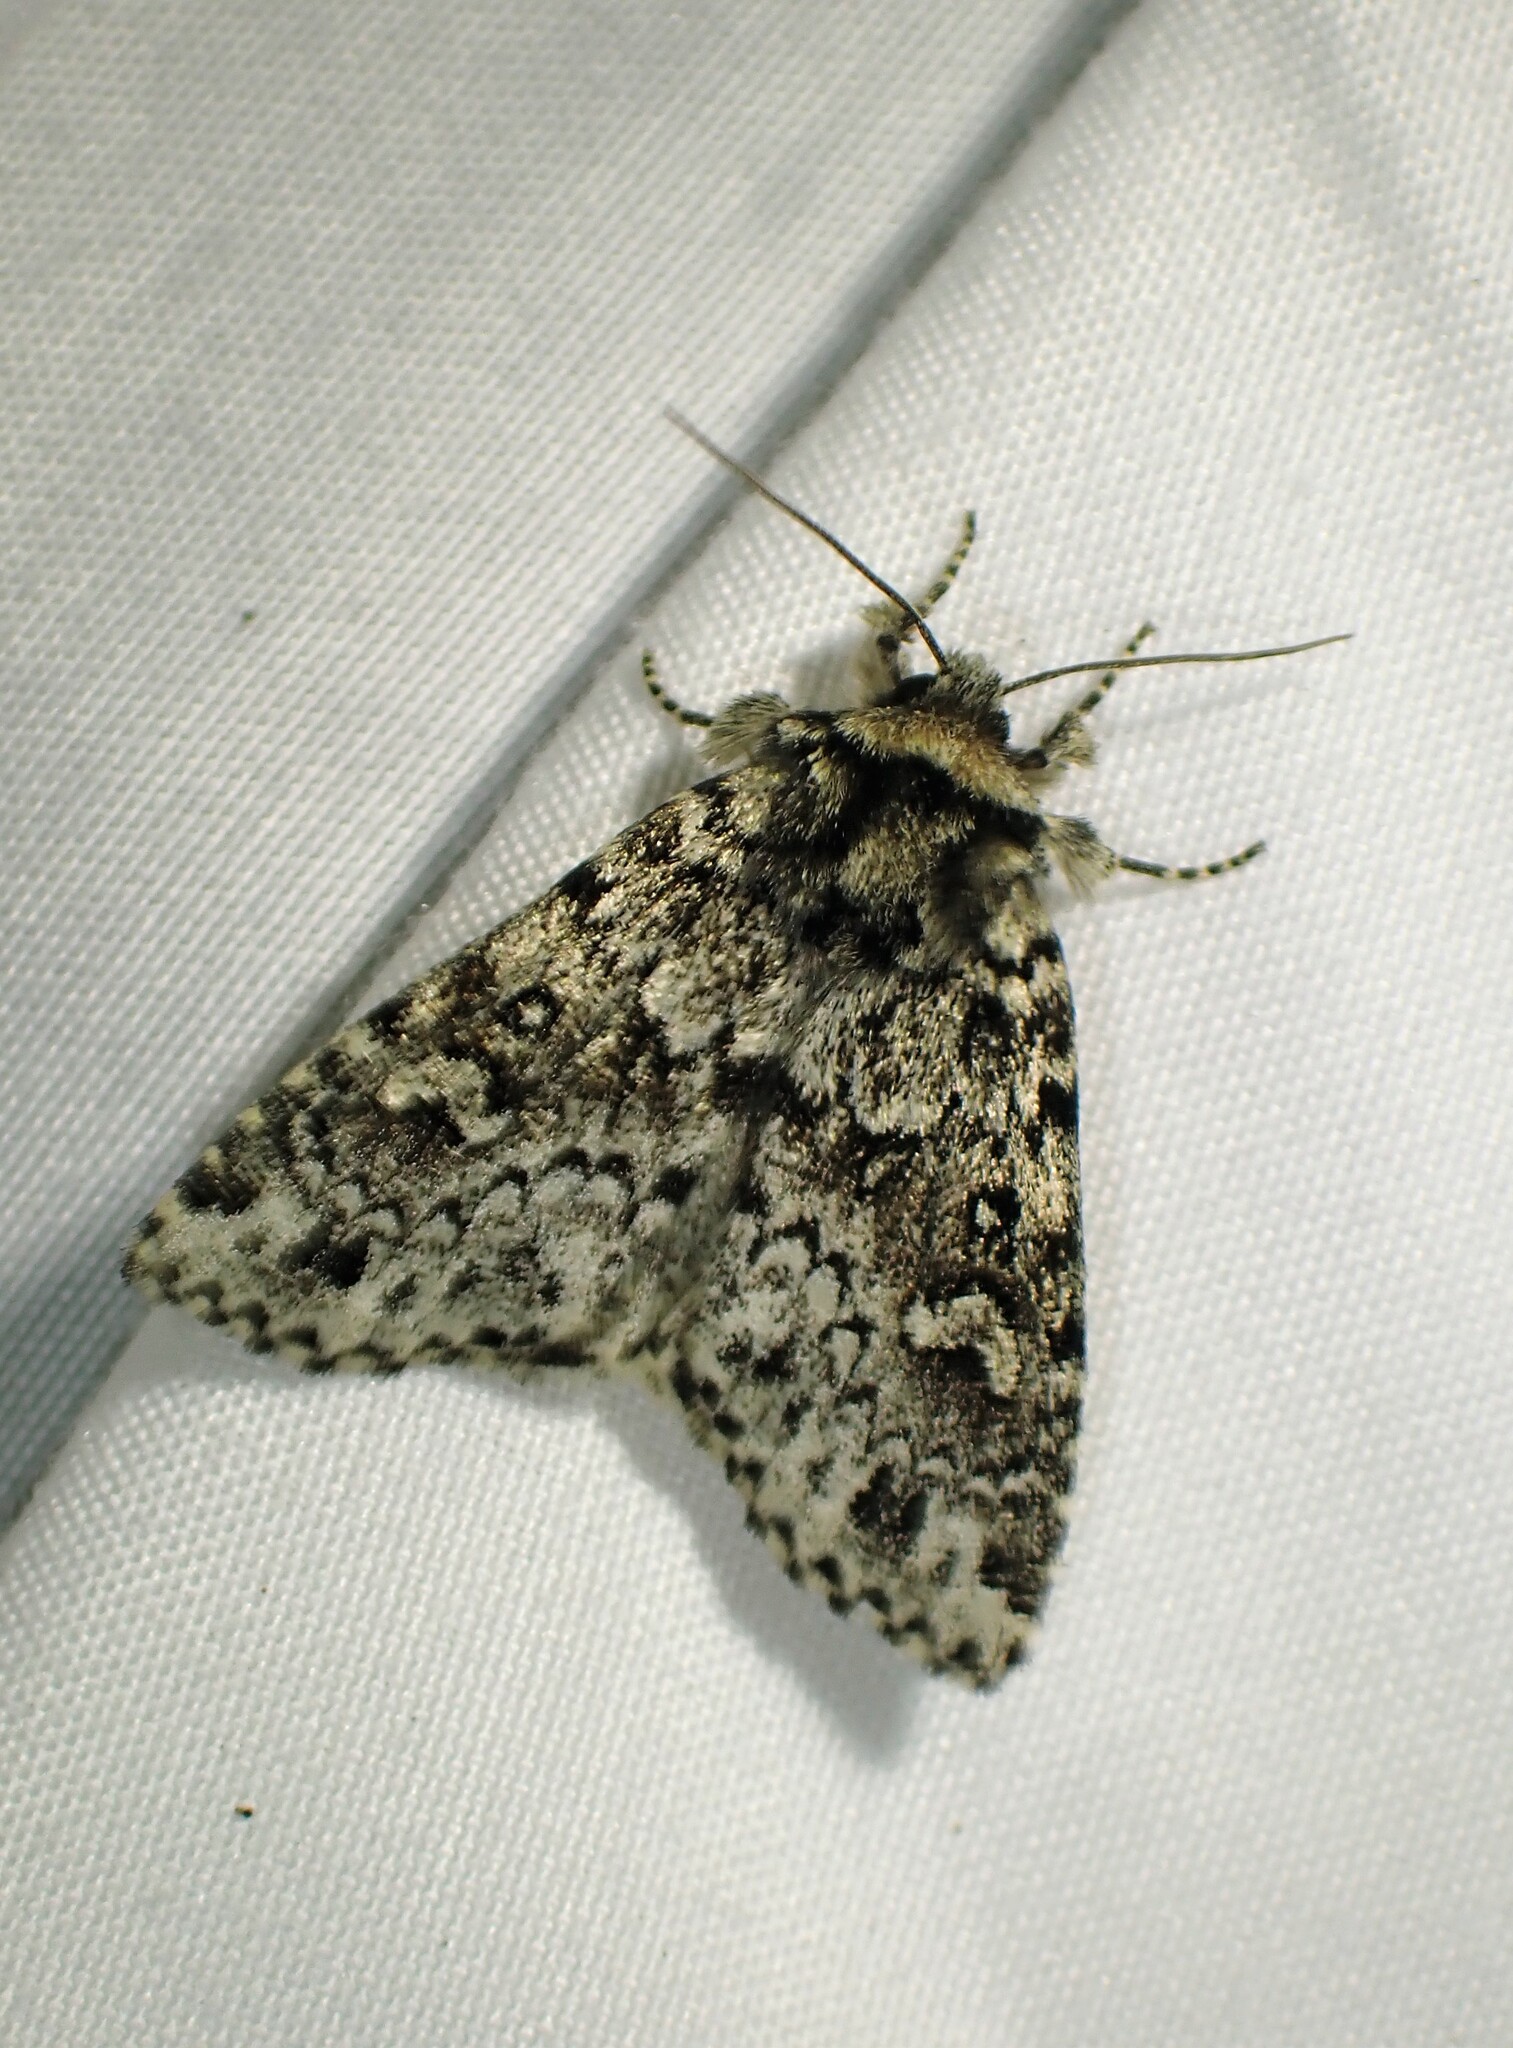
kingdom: Animalia
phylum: Arthropoda
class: Insecta
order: Lepidoptera
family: Noctuidae
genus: Xestia
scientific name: Xestia perquiritata
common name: Boomerang dart
